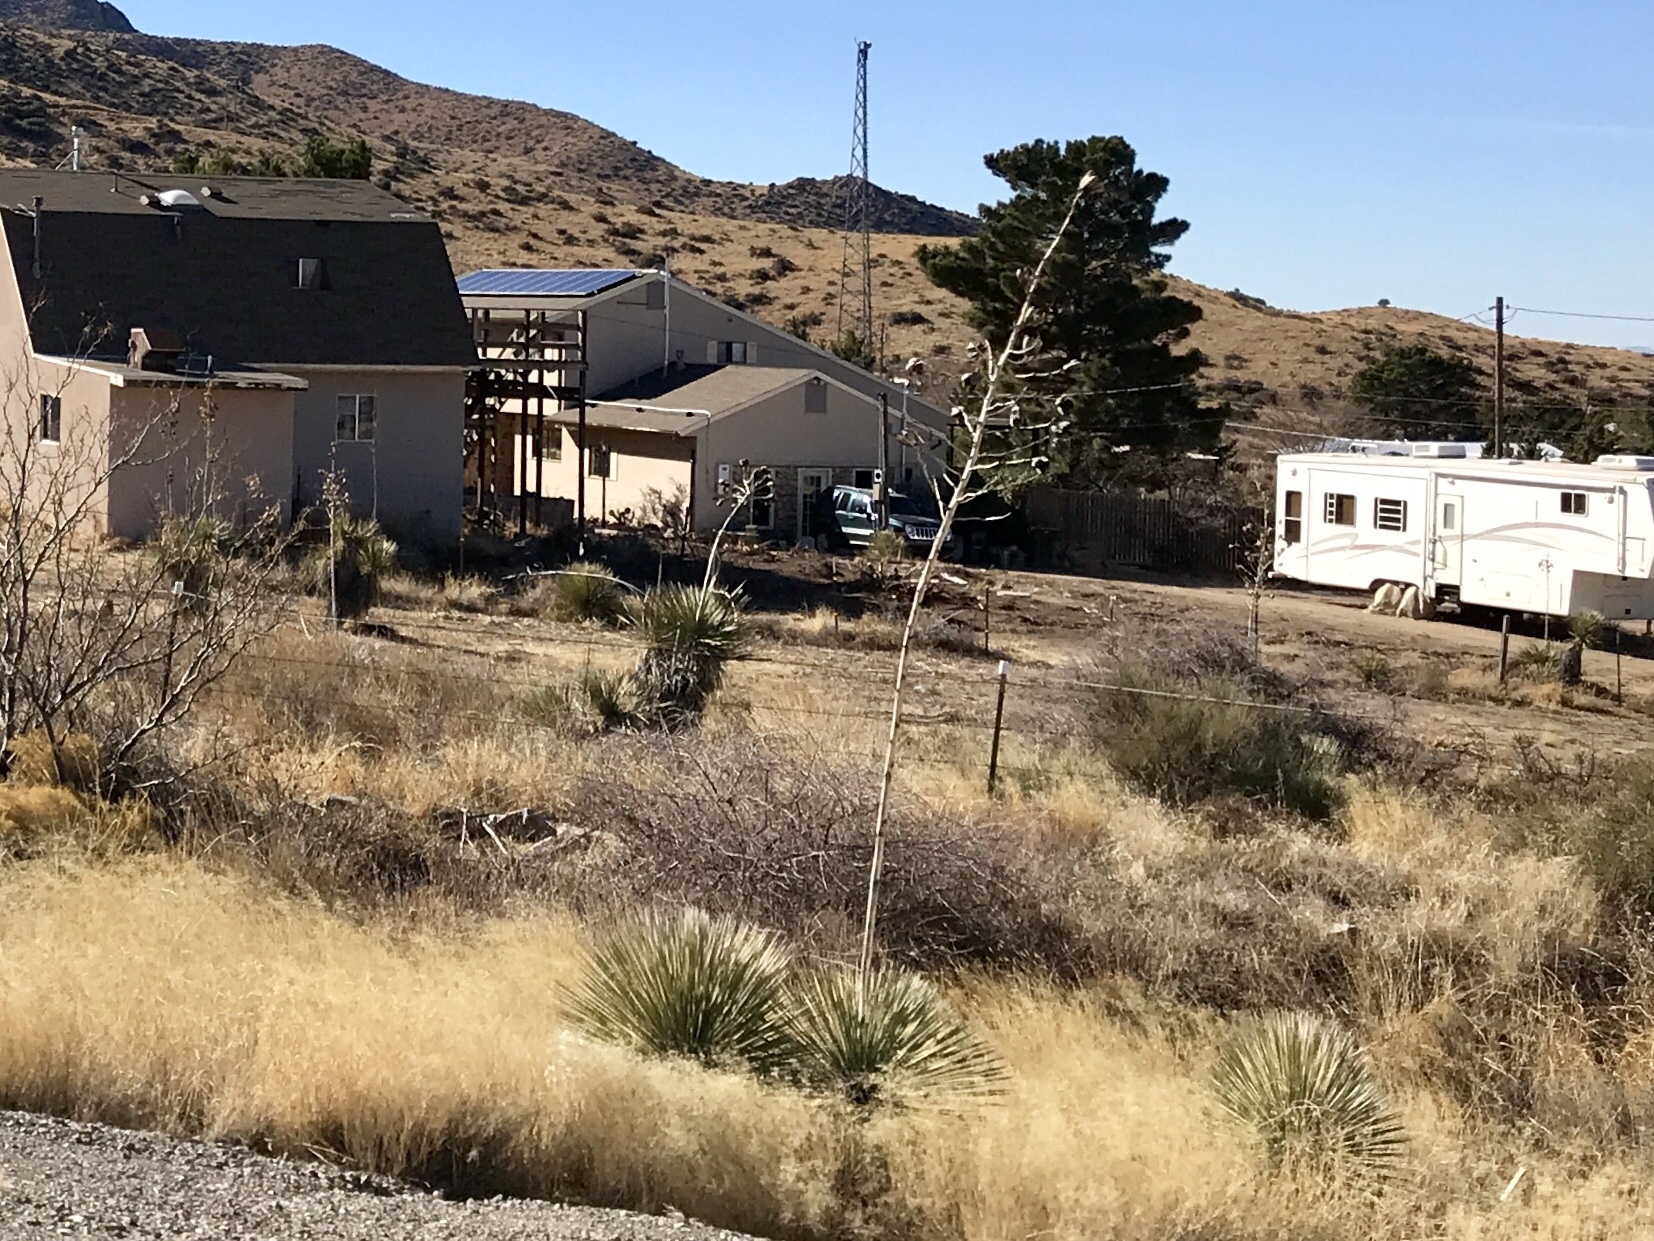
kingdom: Plantae
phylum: Tracheophyta
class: Liliopsida
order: Asparagales
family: Asparagaceae
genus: Yucca
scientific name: Yucca elata
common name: Palmella
